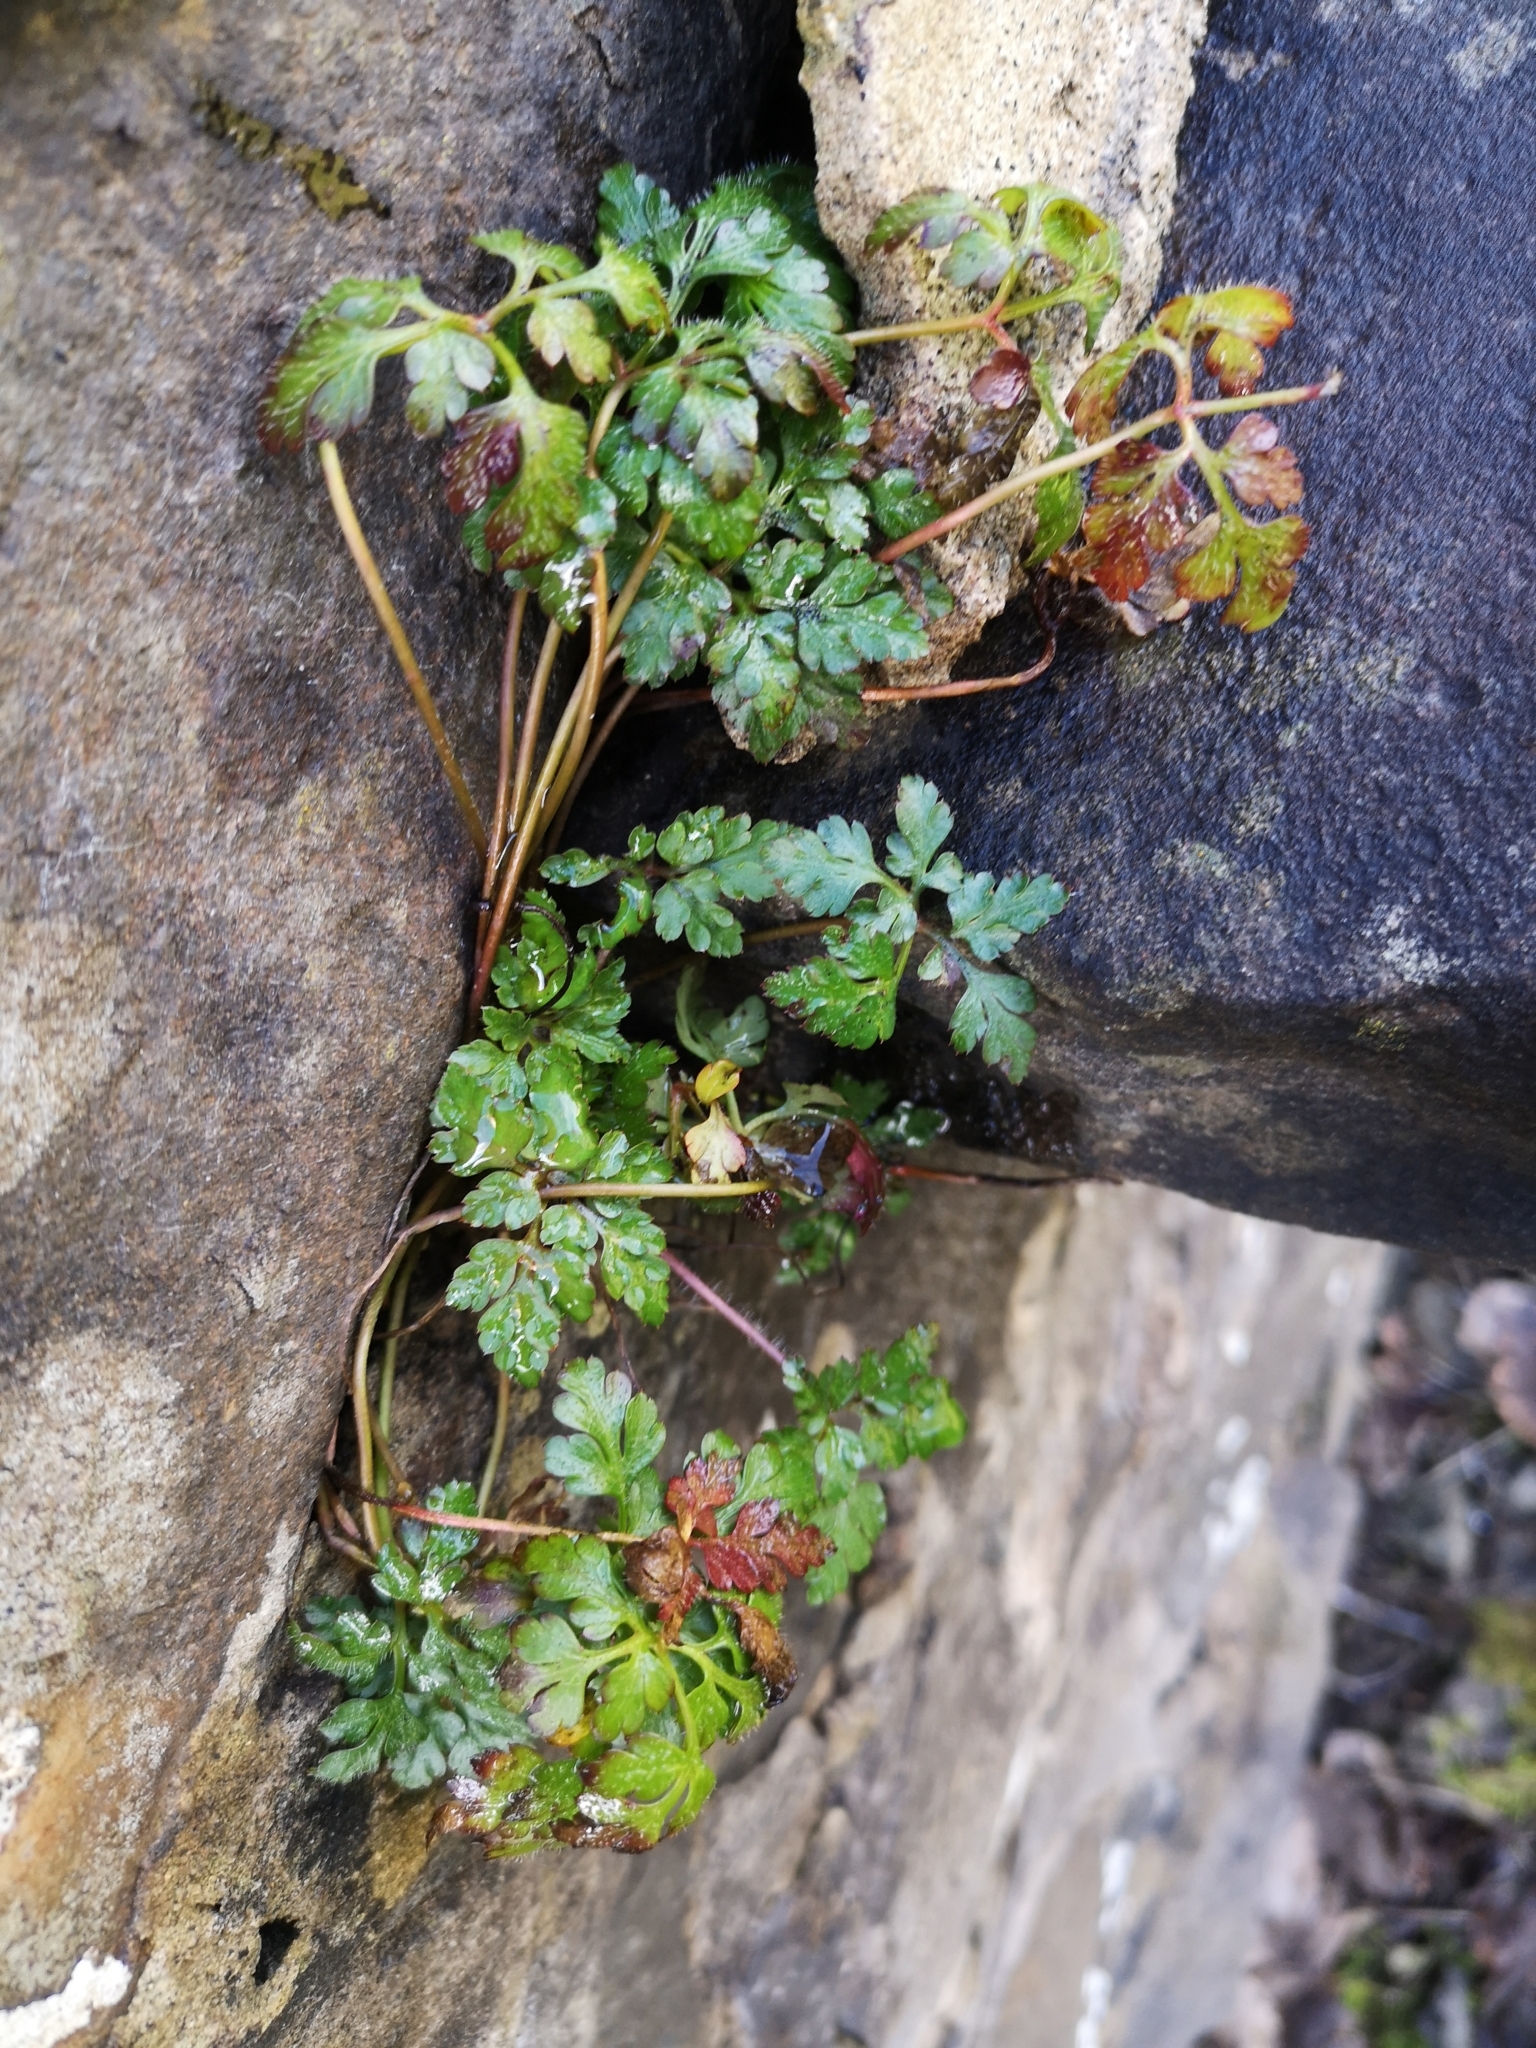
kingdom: Plantae
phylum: Tracheophyta
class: Magnoliopsida
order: Geraniales
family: Geraniaceae
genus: Geranium
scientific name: Geranium robertianum
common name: Herb-robert
